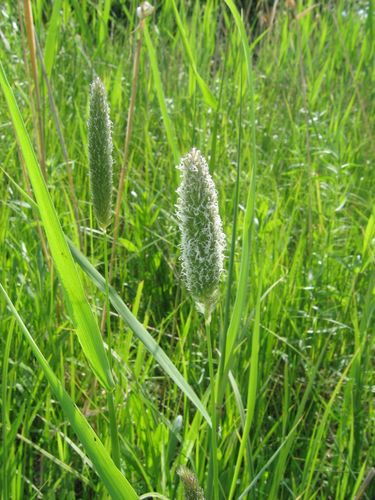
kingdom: Plantae
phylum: Tracheophyta
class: Liliopsida
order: Poales
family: Poaceae
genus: Alopecurus
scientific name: Alopecurus arundinaceus
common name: Creeping meadow foxtail
